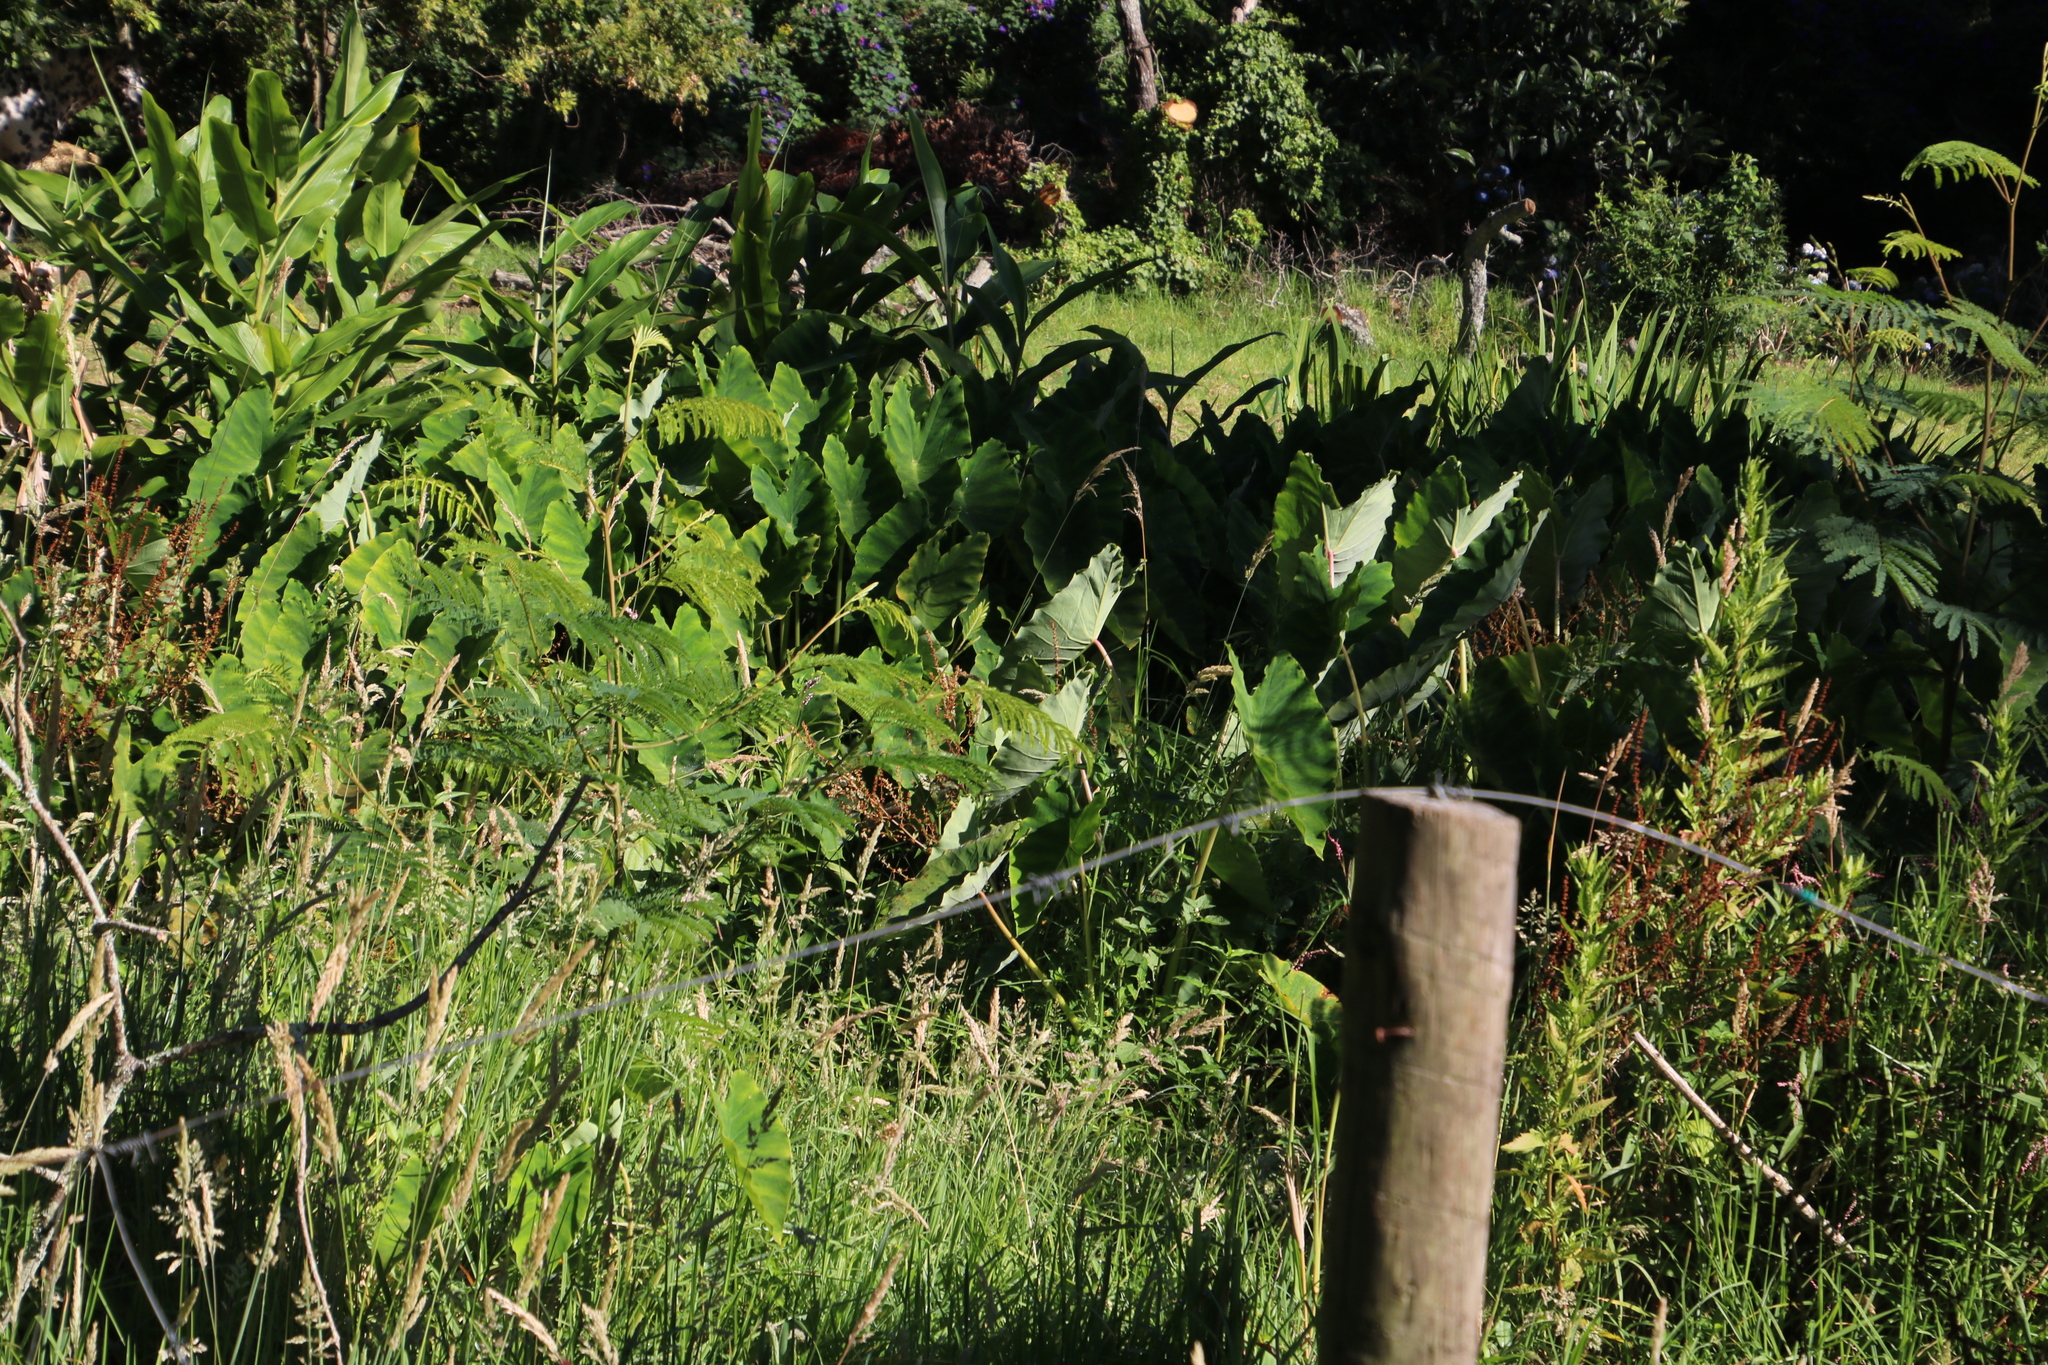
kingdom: Plantae
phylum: Tracheophyta
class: Liliopsida
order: Alismatales
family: Araceae
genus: Colocasia
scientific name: Colocasia esculenta
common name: Taro
